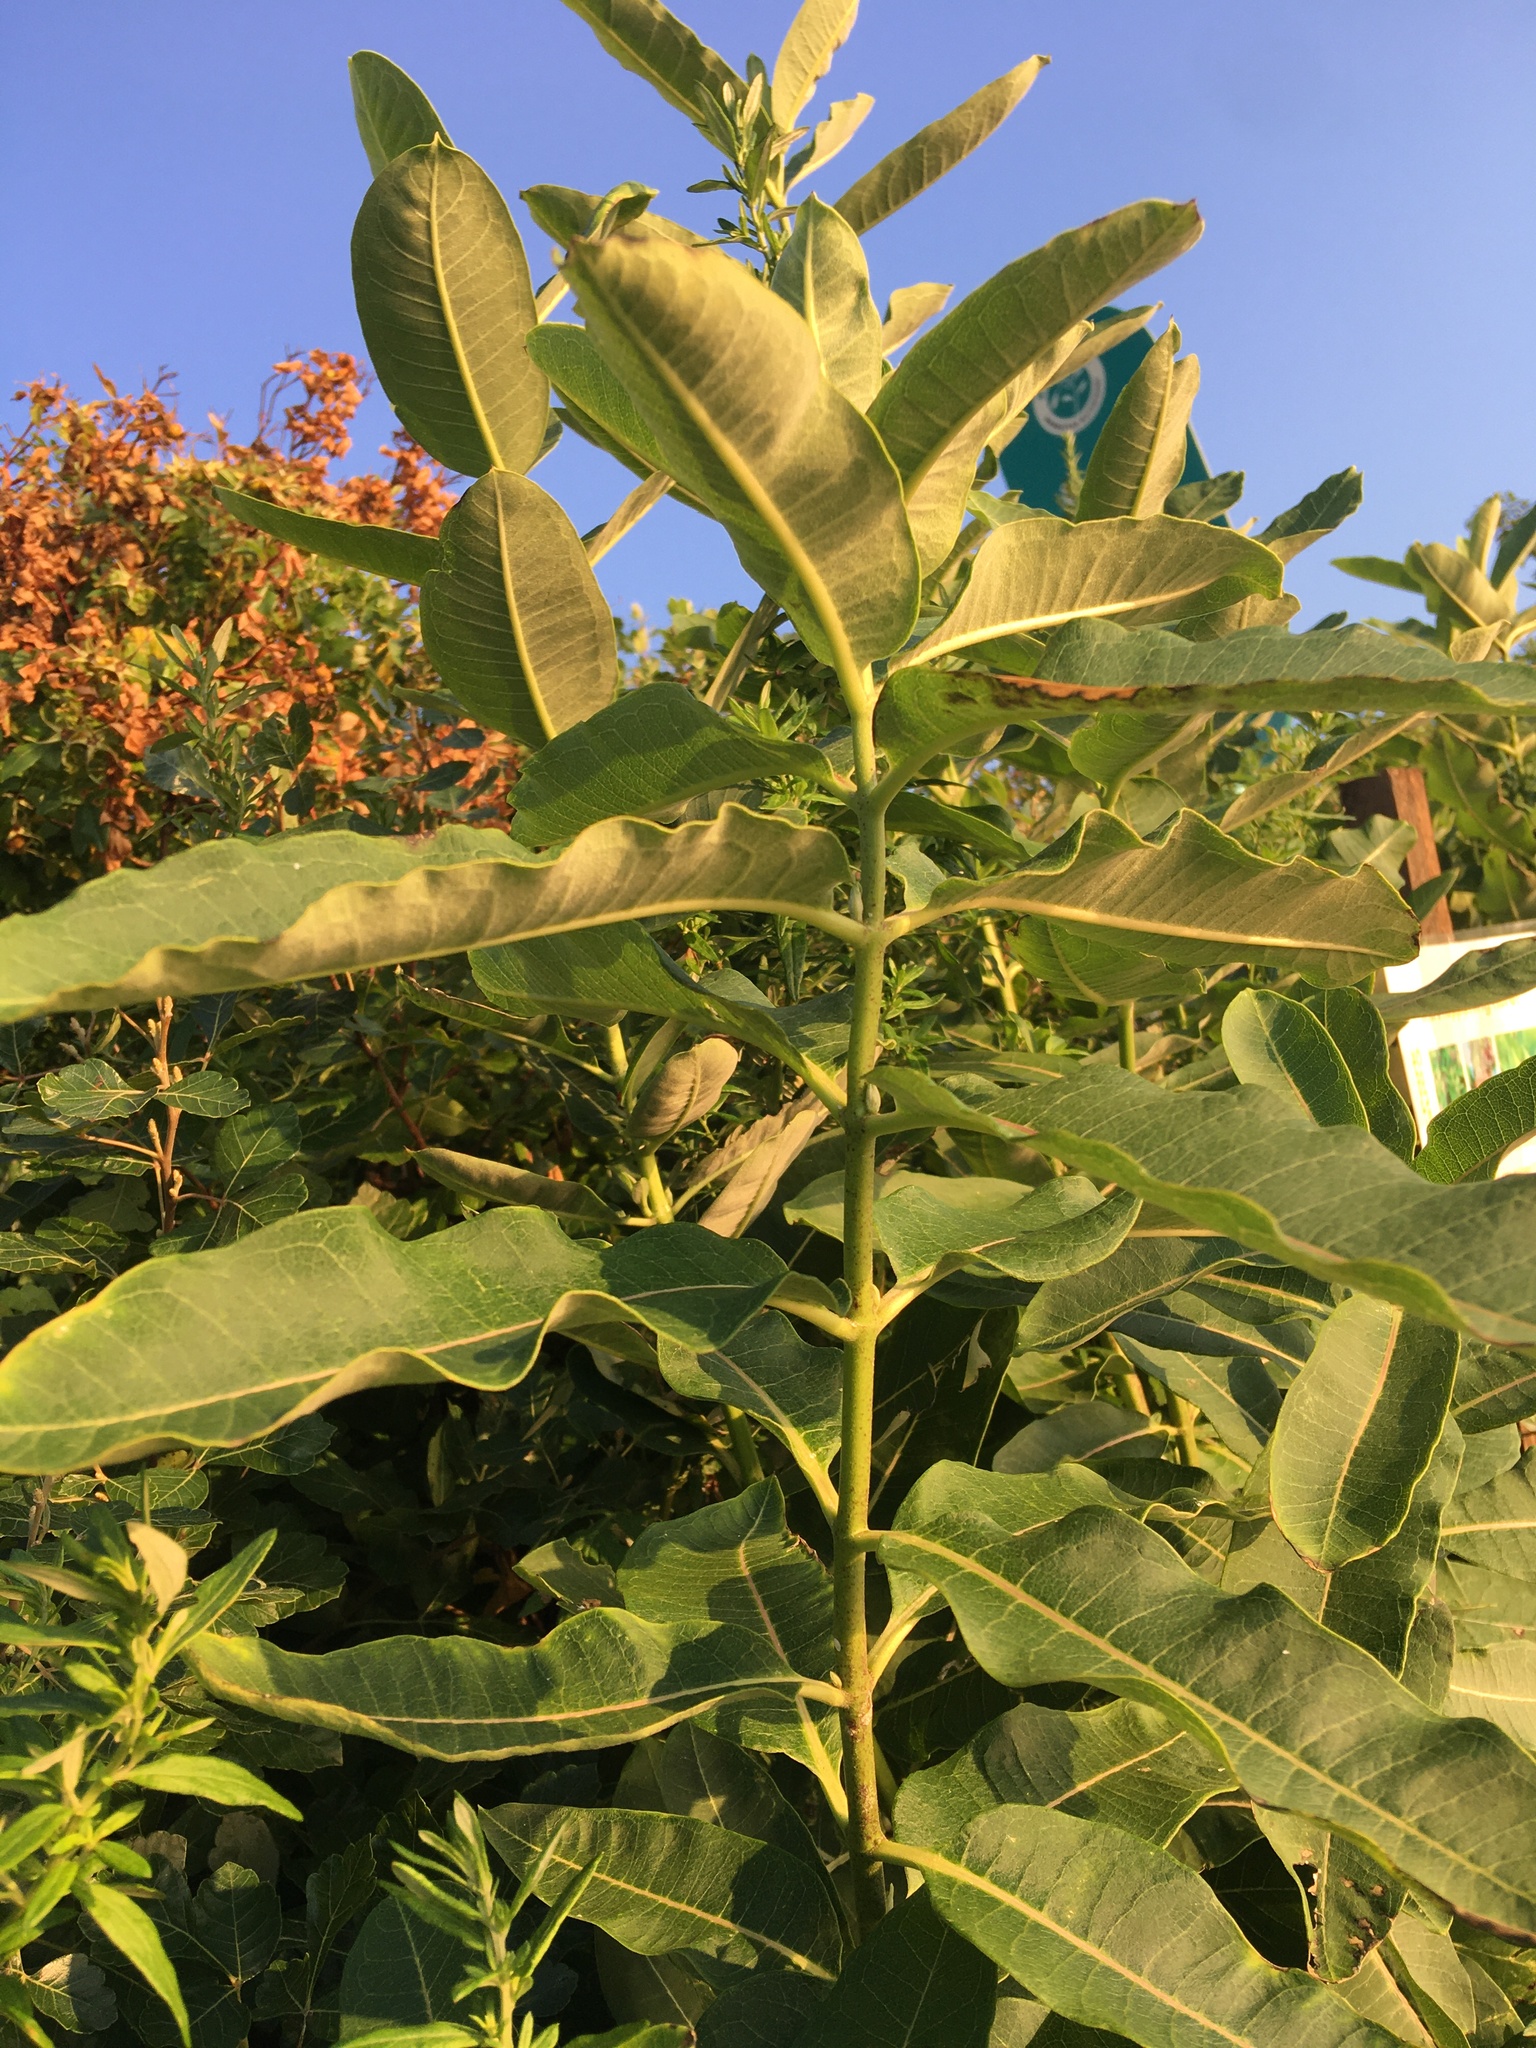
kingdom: Plantae
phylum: Tracheophyta
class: Magnoliopsida
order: Gentianales
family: Apocynaceae
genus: Asclepias
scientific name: Asclepias syriaca
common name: Common milkweed
